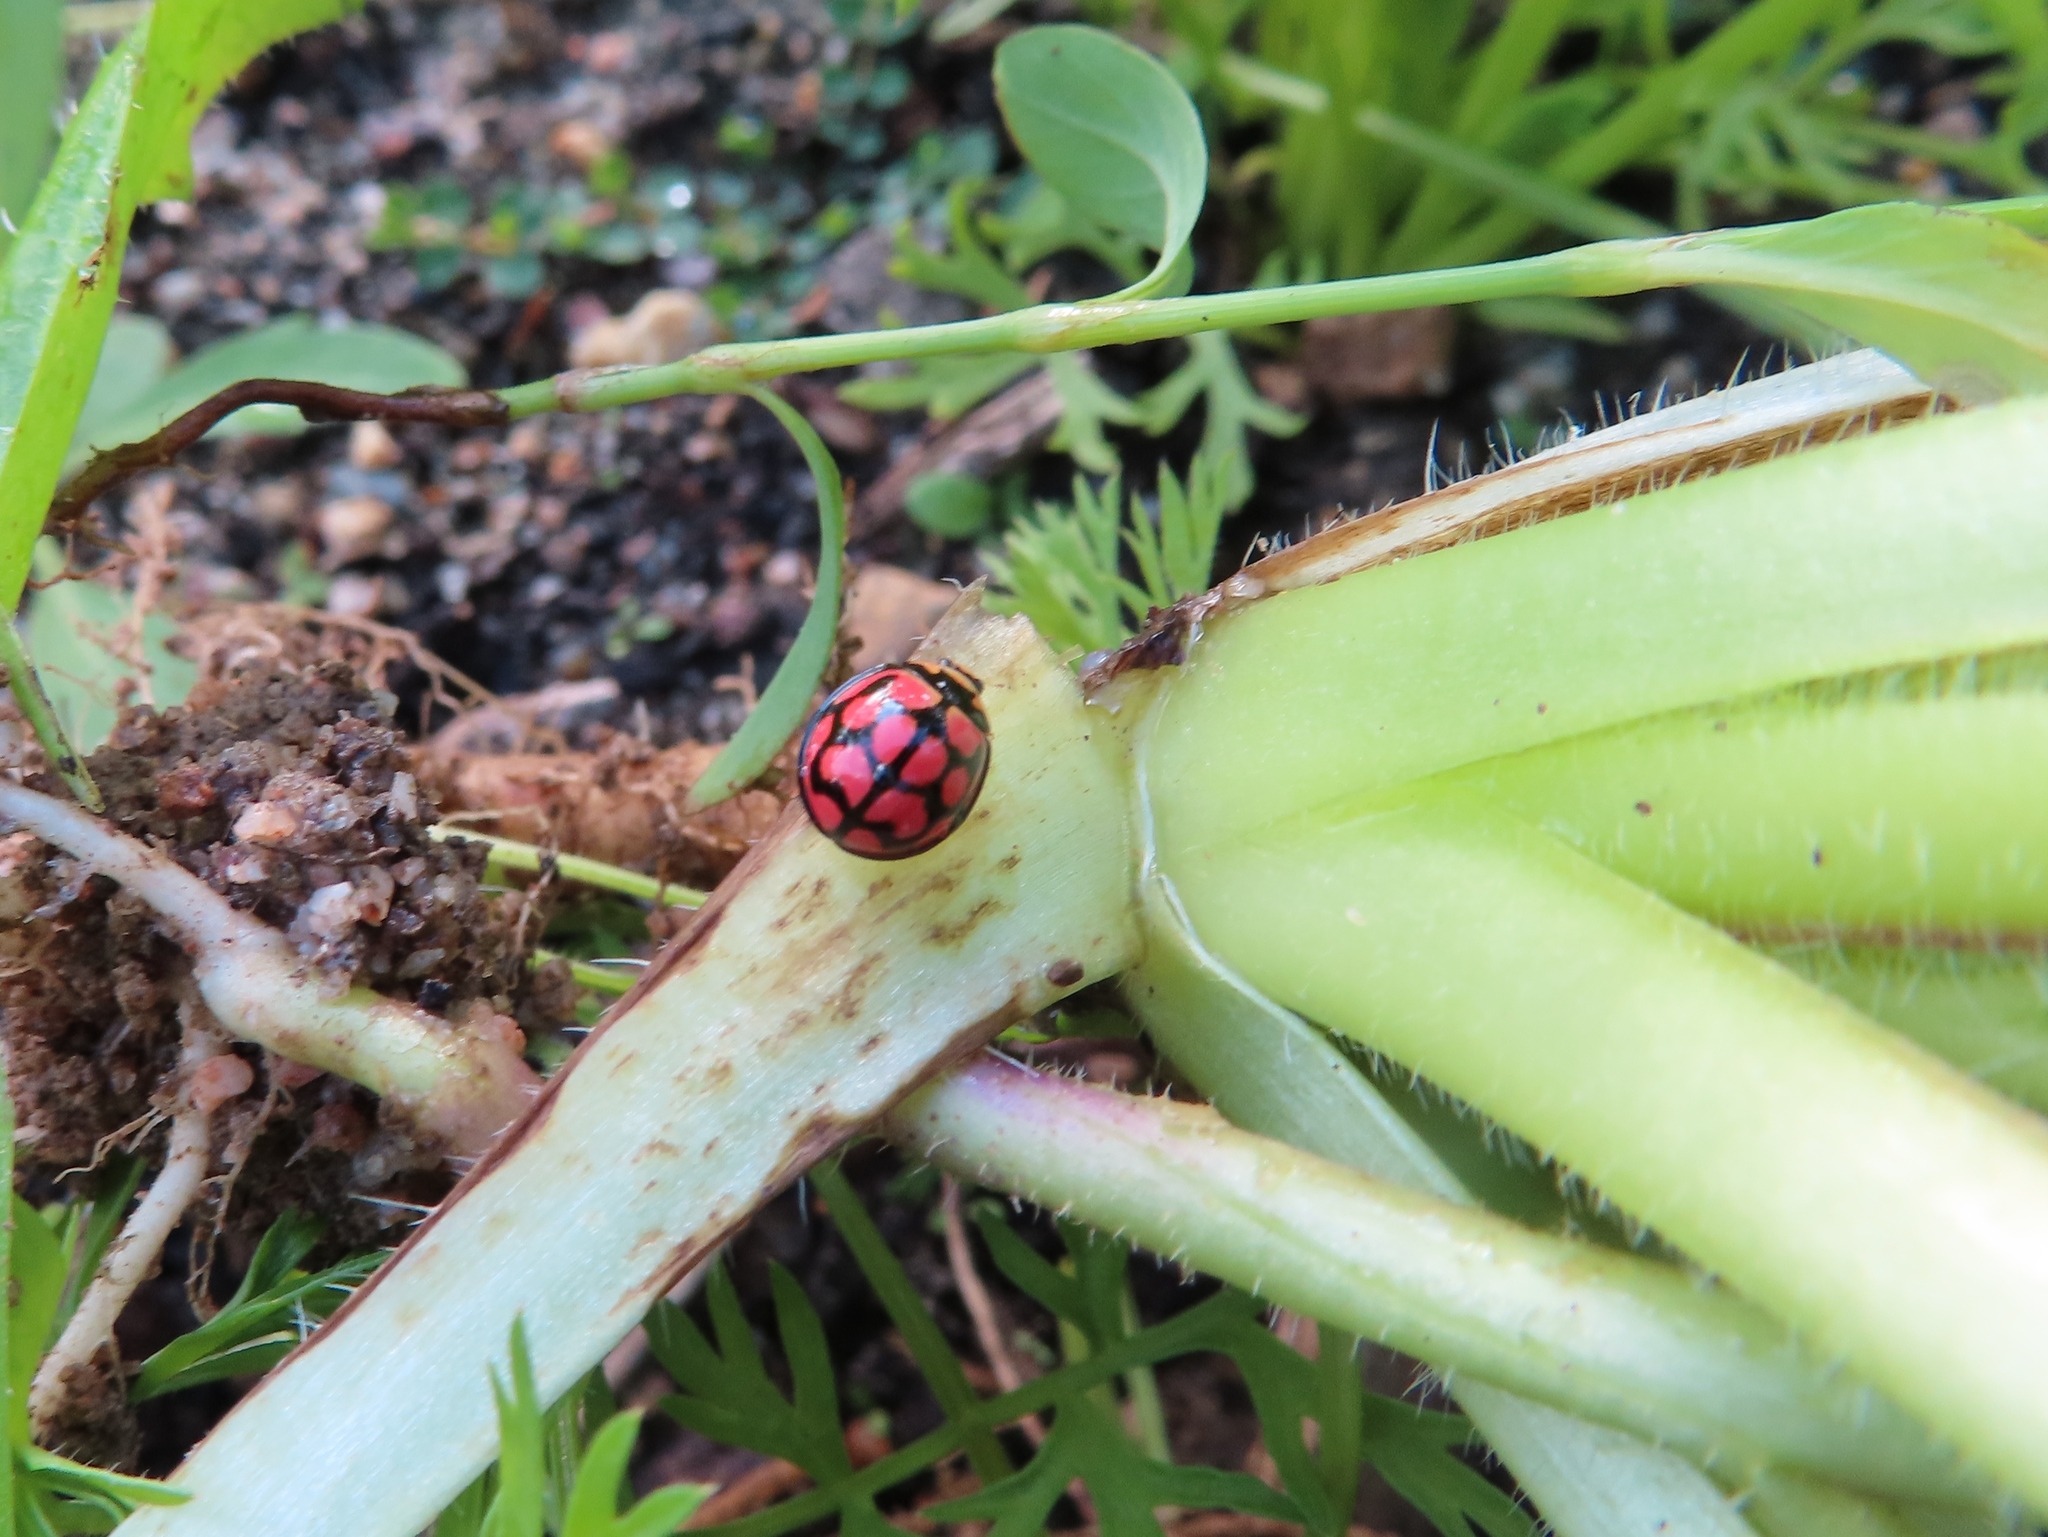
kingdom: Animalia
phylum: Arthropoda
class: Insecta
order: Coleoptera
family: Coccinellidae
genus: Cheilomenes
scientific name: Cheilomenes lunata
